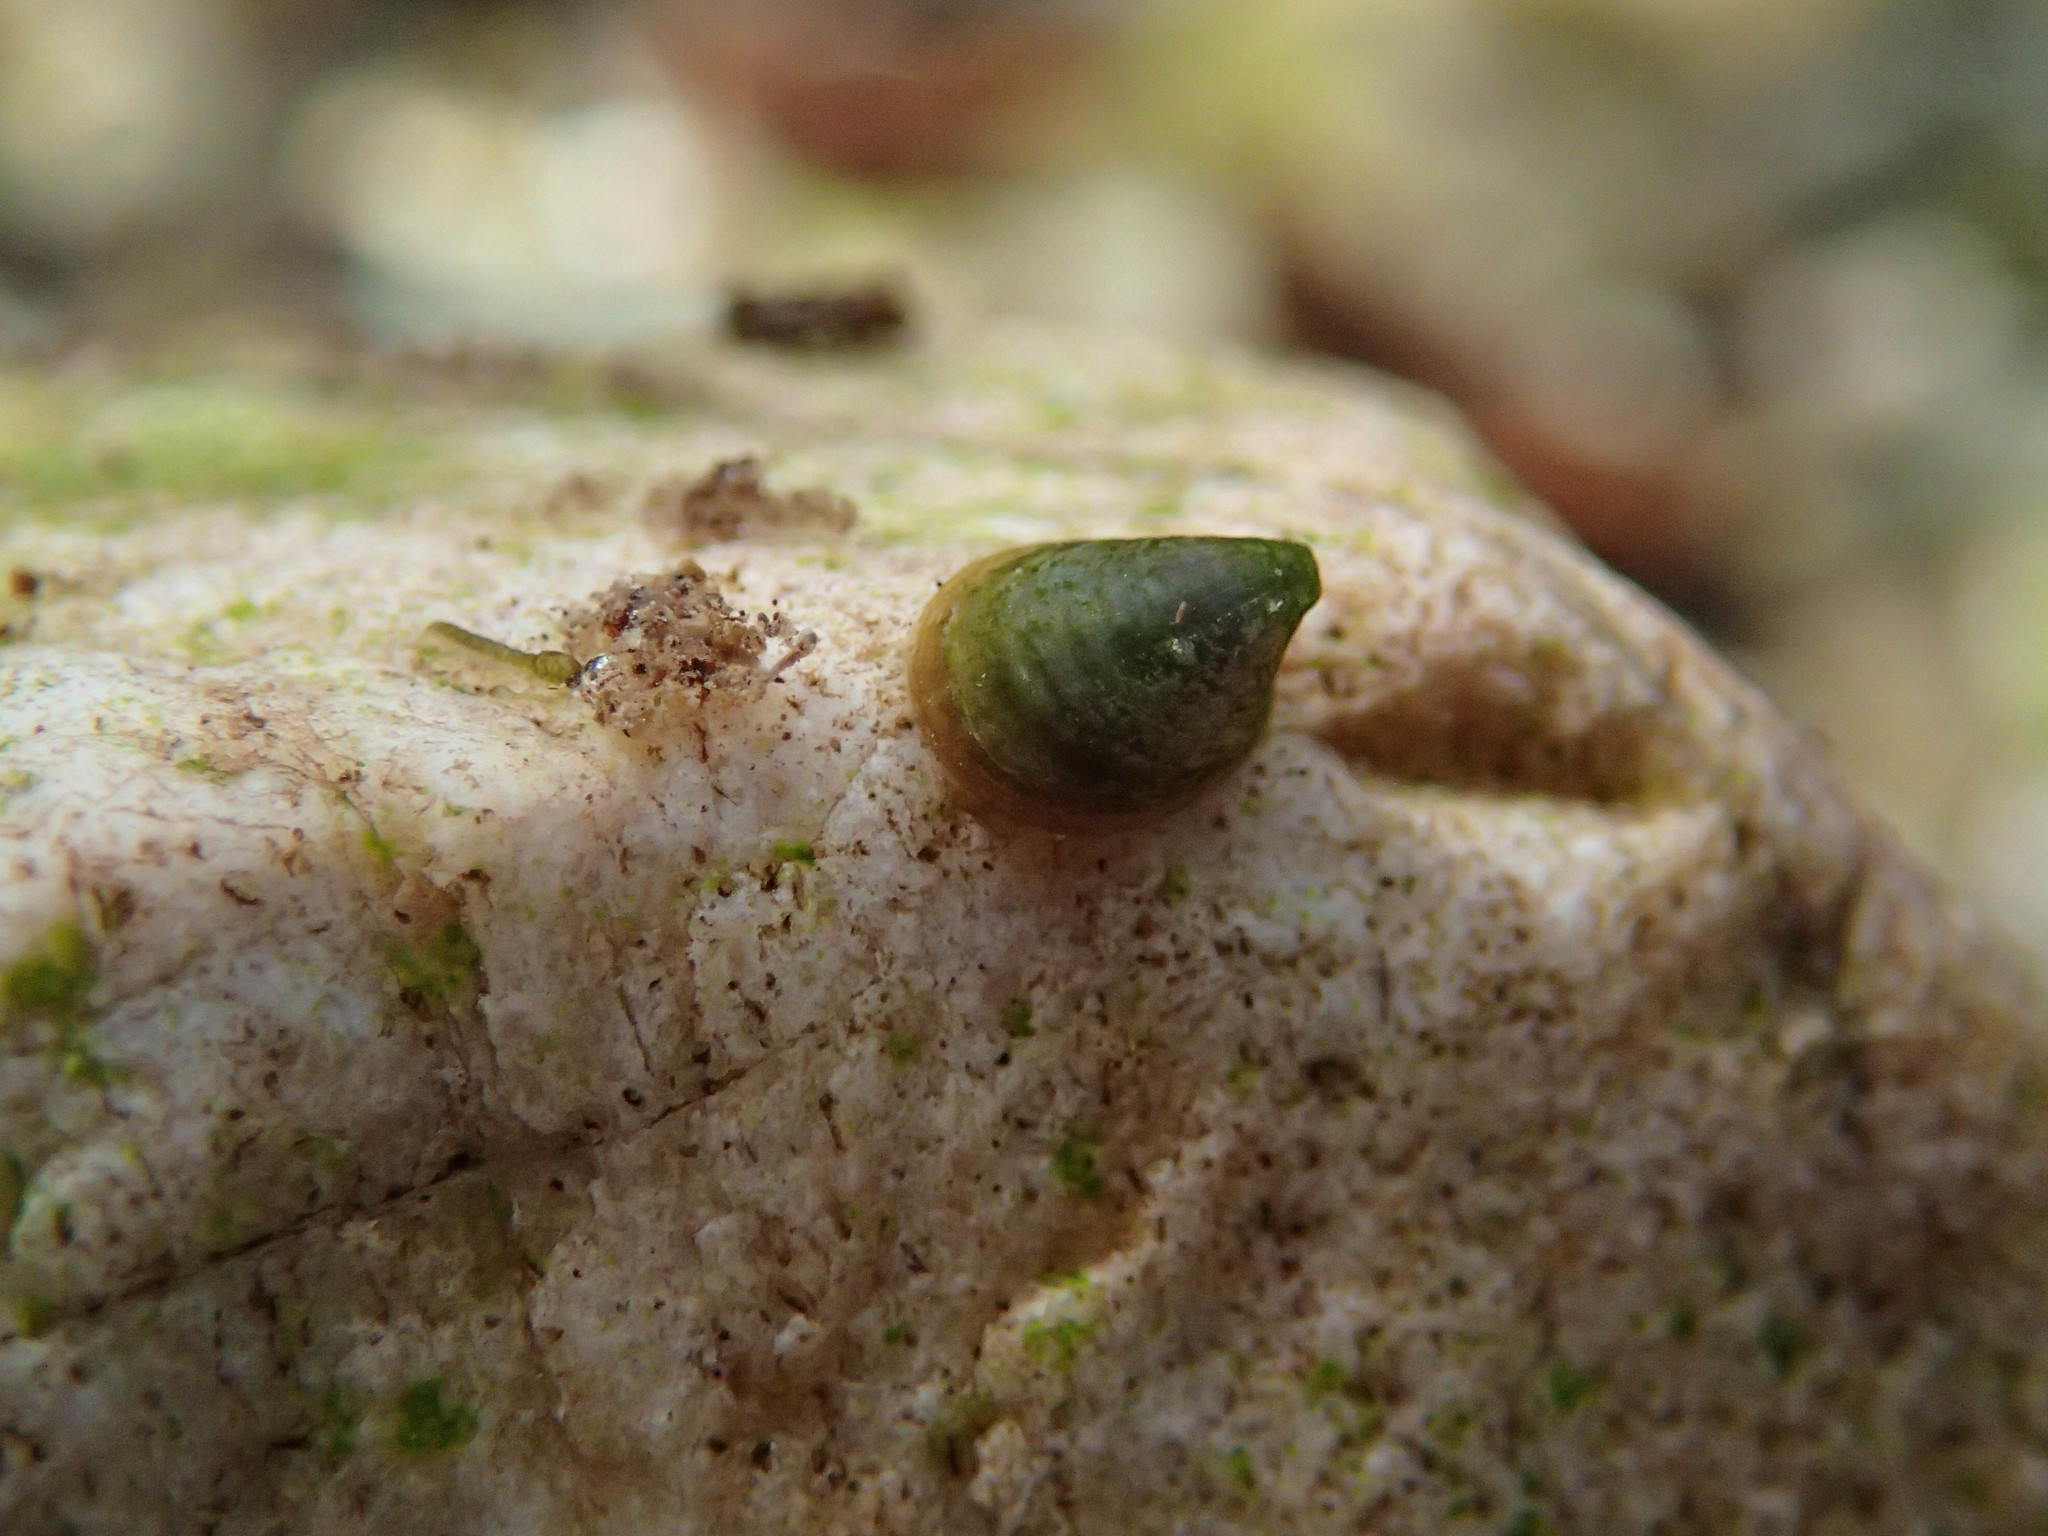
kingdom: Animalia
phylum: Mollusca
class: Gastropoda
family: Planorbidae
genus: Ancylus
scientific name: Ancylus fluviatilis
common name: River limpet
